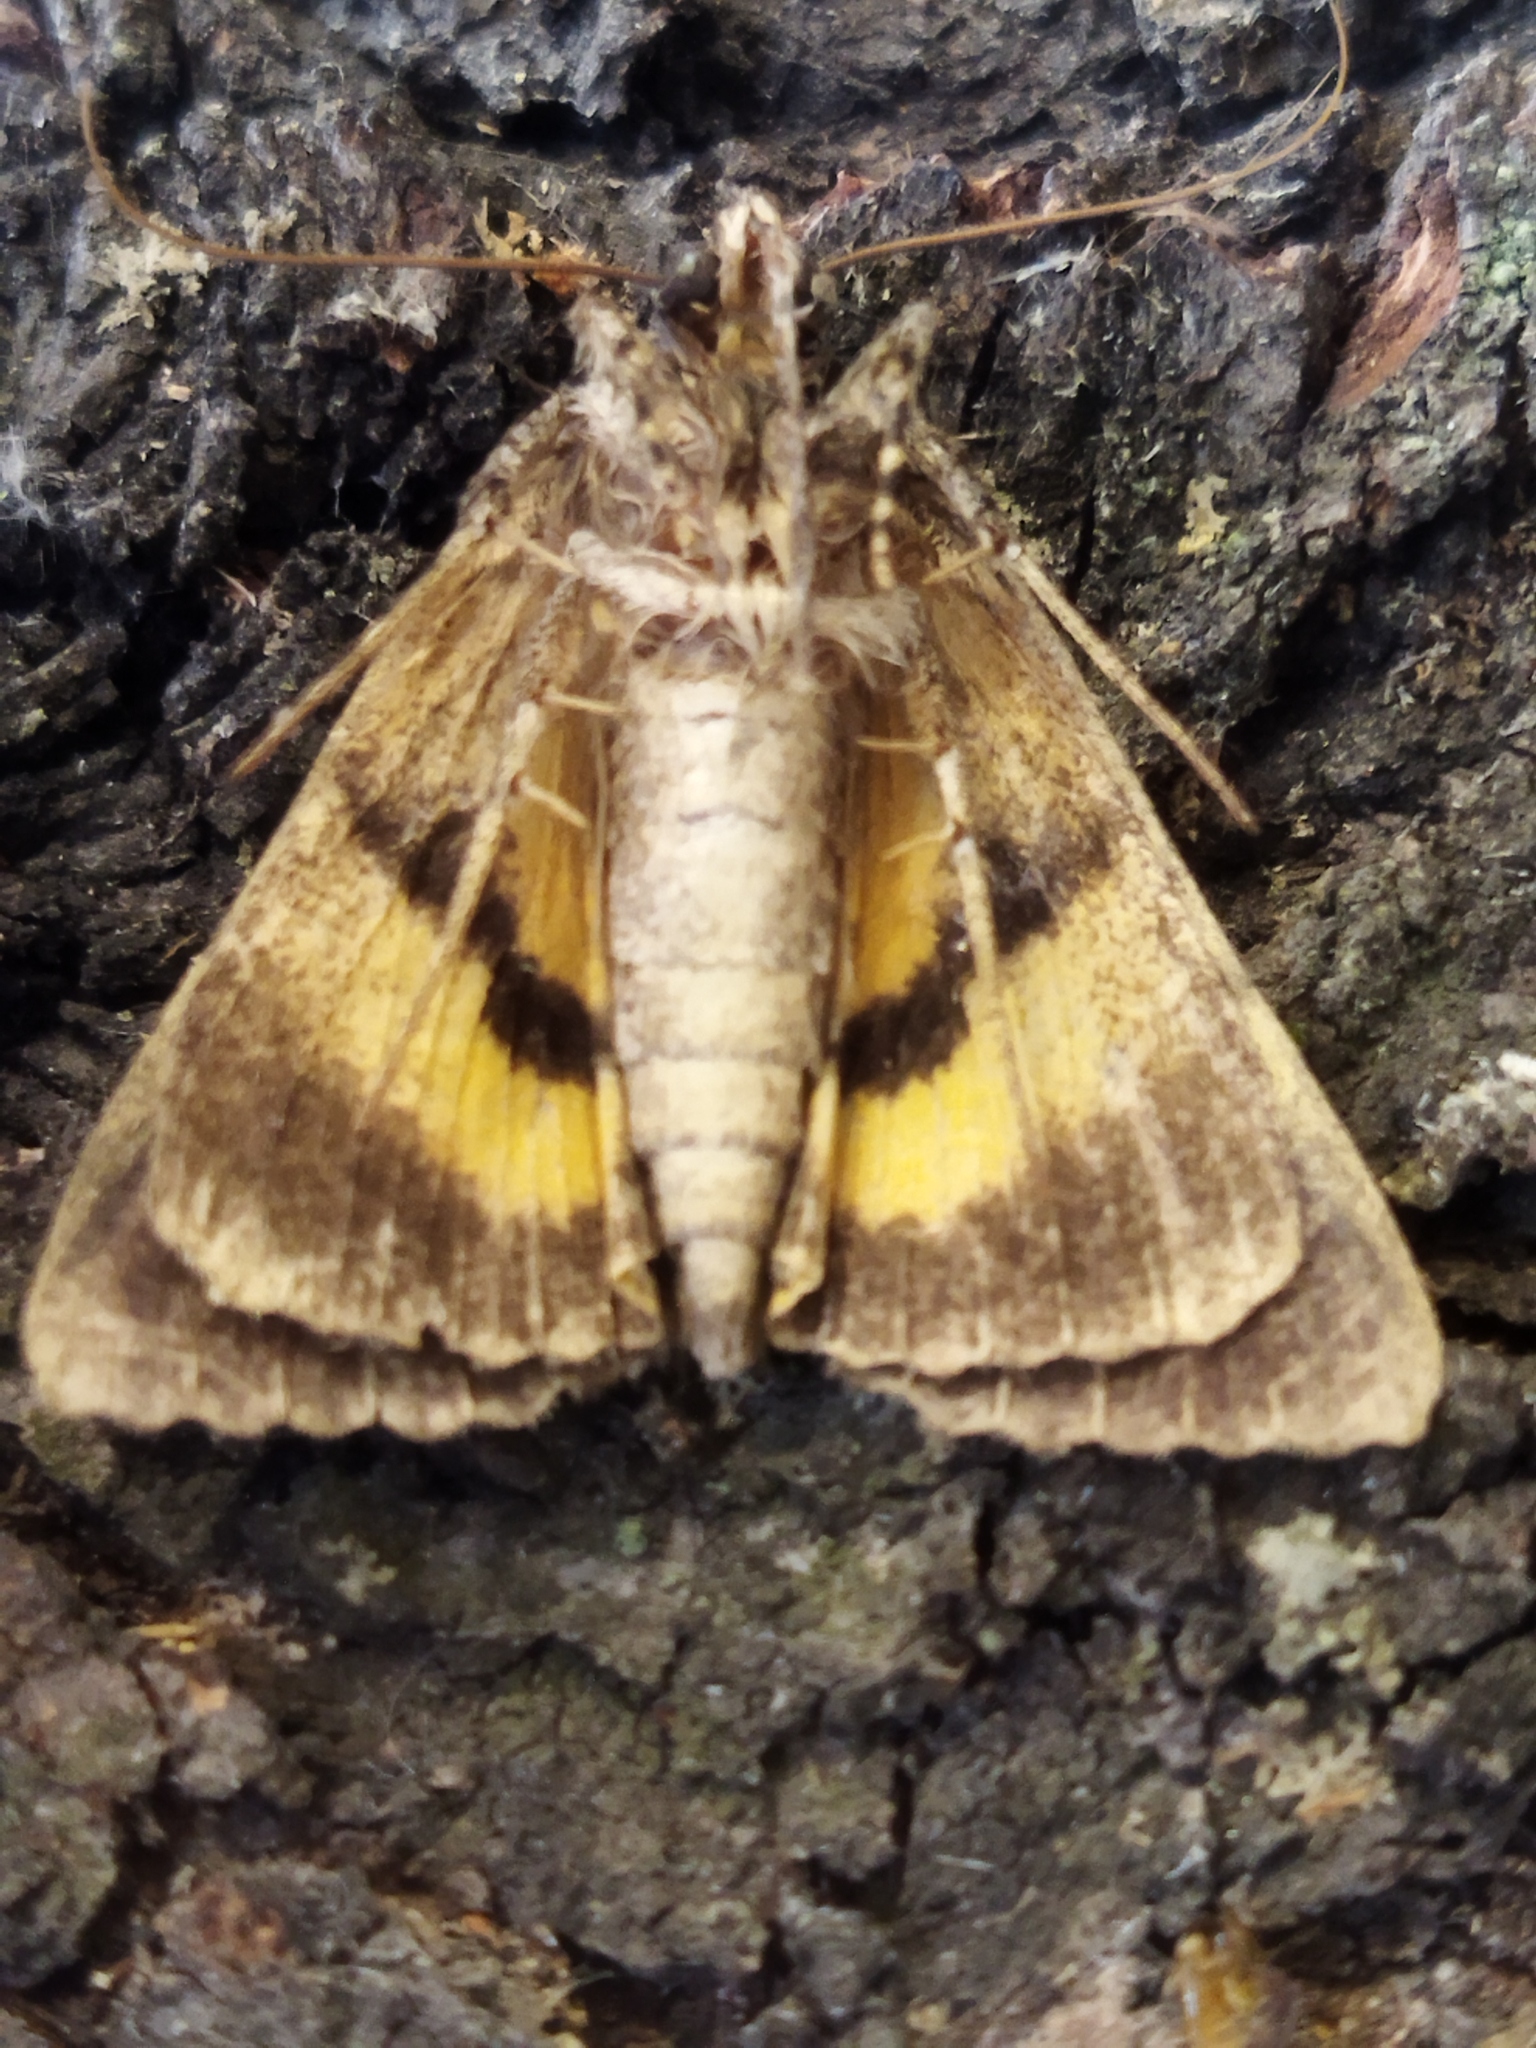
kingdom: Animalia
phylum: Arthropoda
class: Insecta
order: Lepidoptera
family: Erebidae
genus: Catocala
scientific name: Catocala hymenaea
